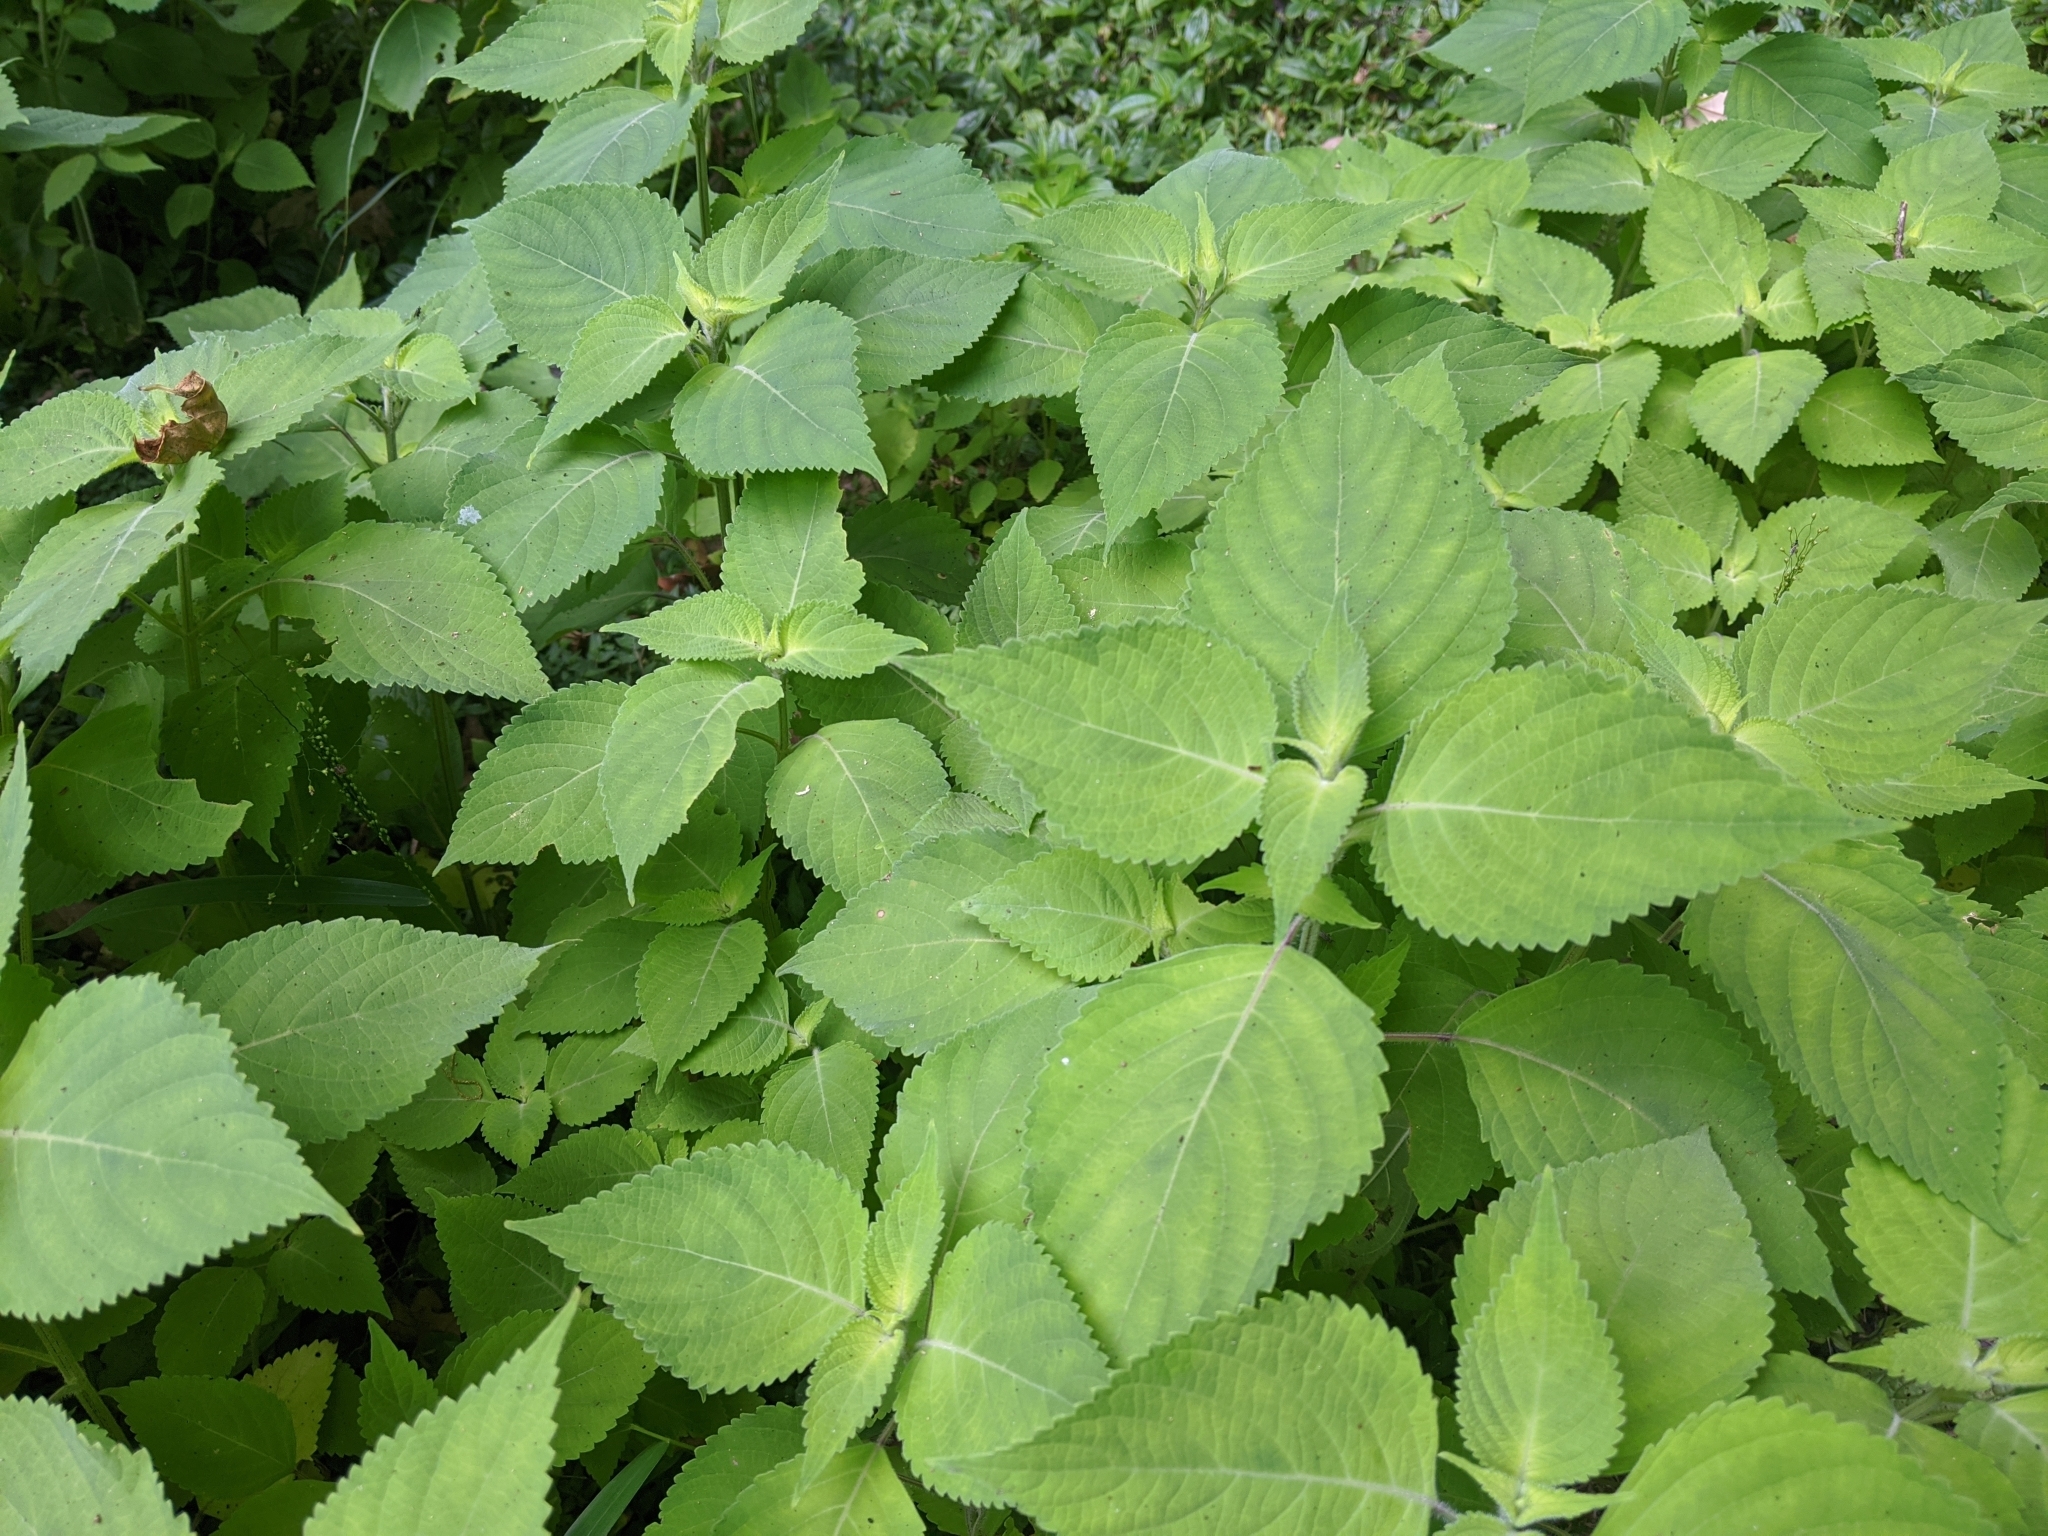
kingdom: Plantae
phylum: Tracheophyta
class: Magnoliopsida
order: Lamiales
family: Lamiaceae
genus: Collinsonia
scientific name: Collinsonia macrobracteata
